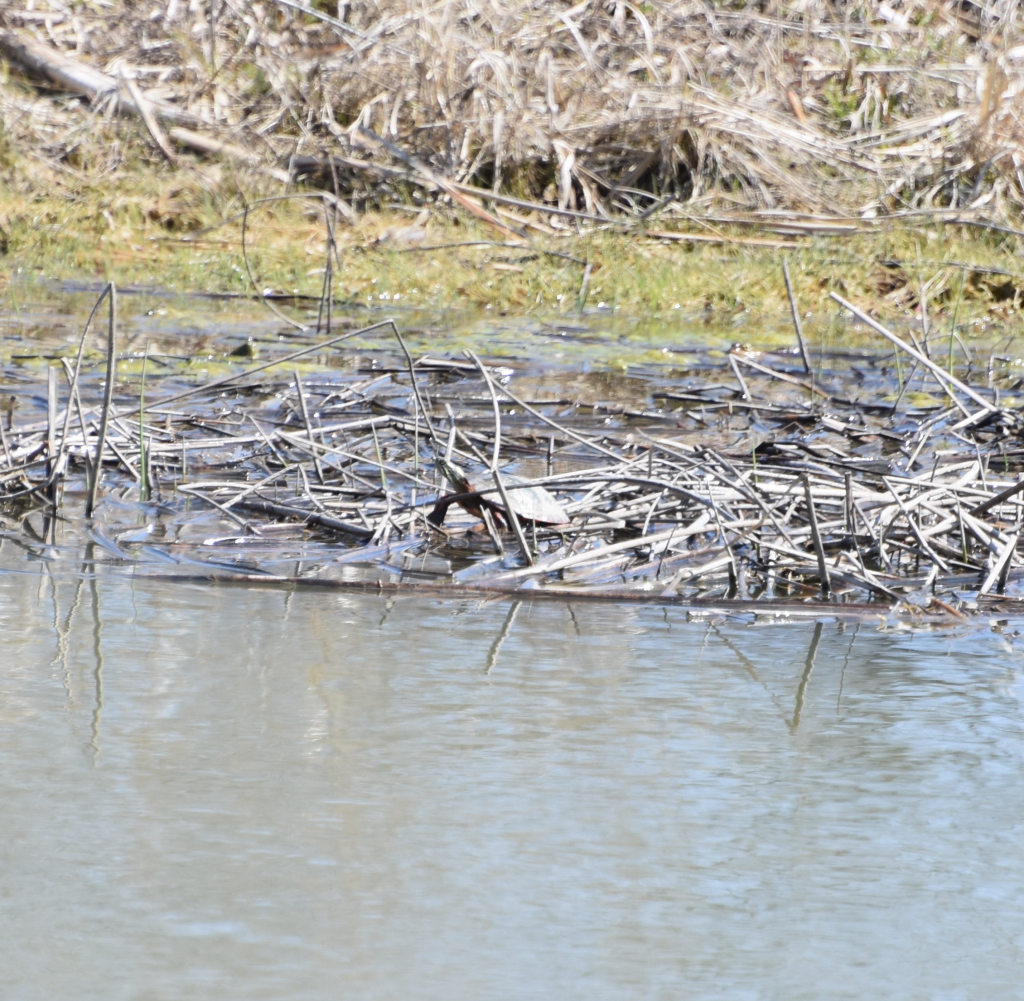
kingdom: Animalia
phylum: Chordata
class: Testudines
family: Emydidae
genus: Chrysemys
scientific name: Chrysemys picta
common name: Painted turtle
